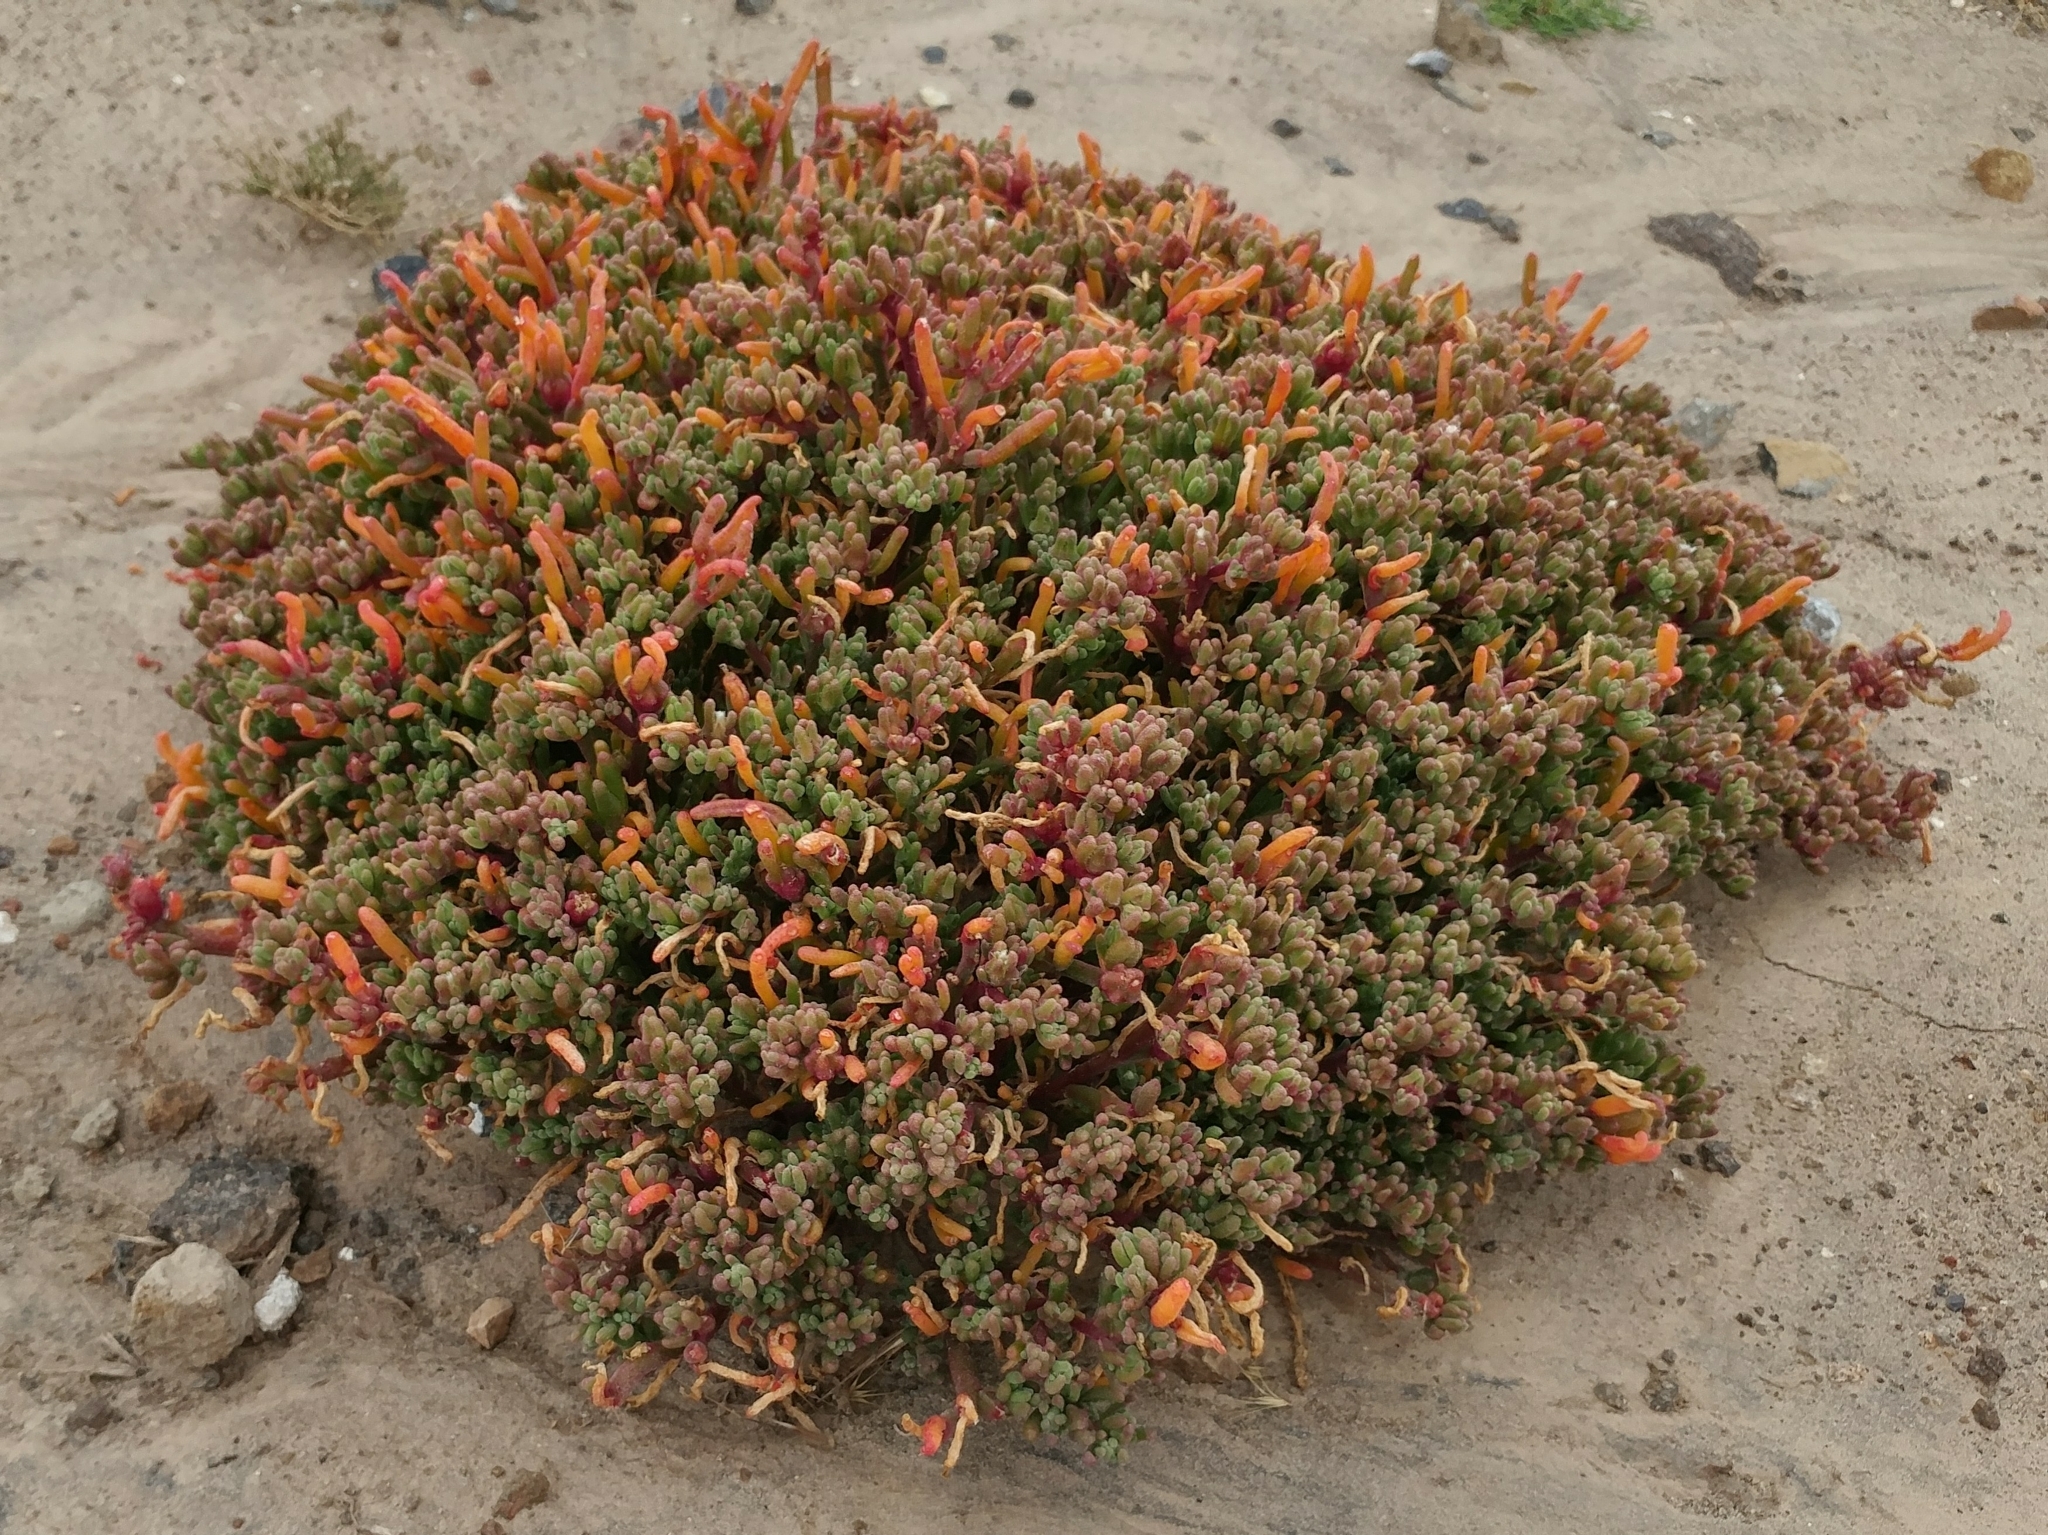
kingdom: Plantae
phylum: Tracheophyta
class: Magnoliopsida
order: Caryophyllales
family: Aizoaceae
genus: Mesembryanthemum
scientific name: Mesembryanthemum nodiflorum
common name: Slenderleaf iceplant
